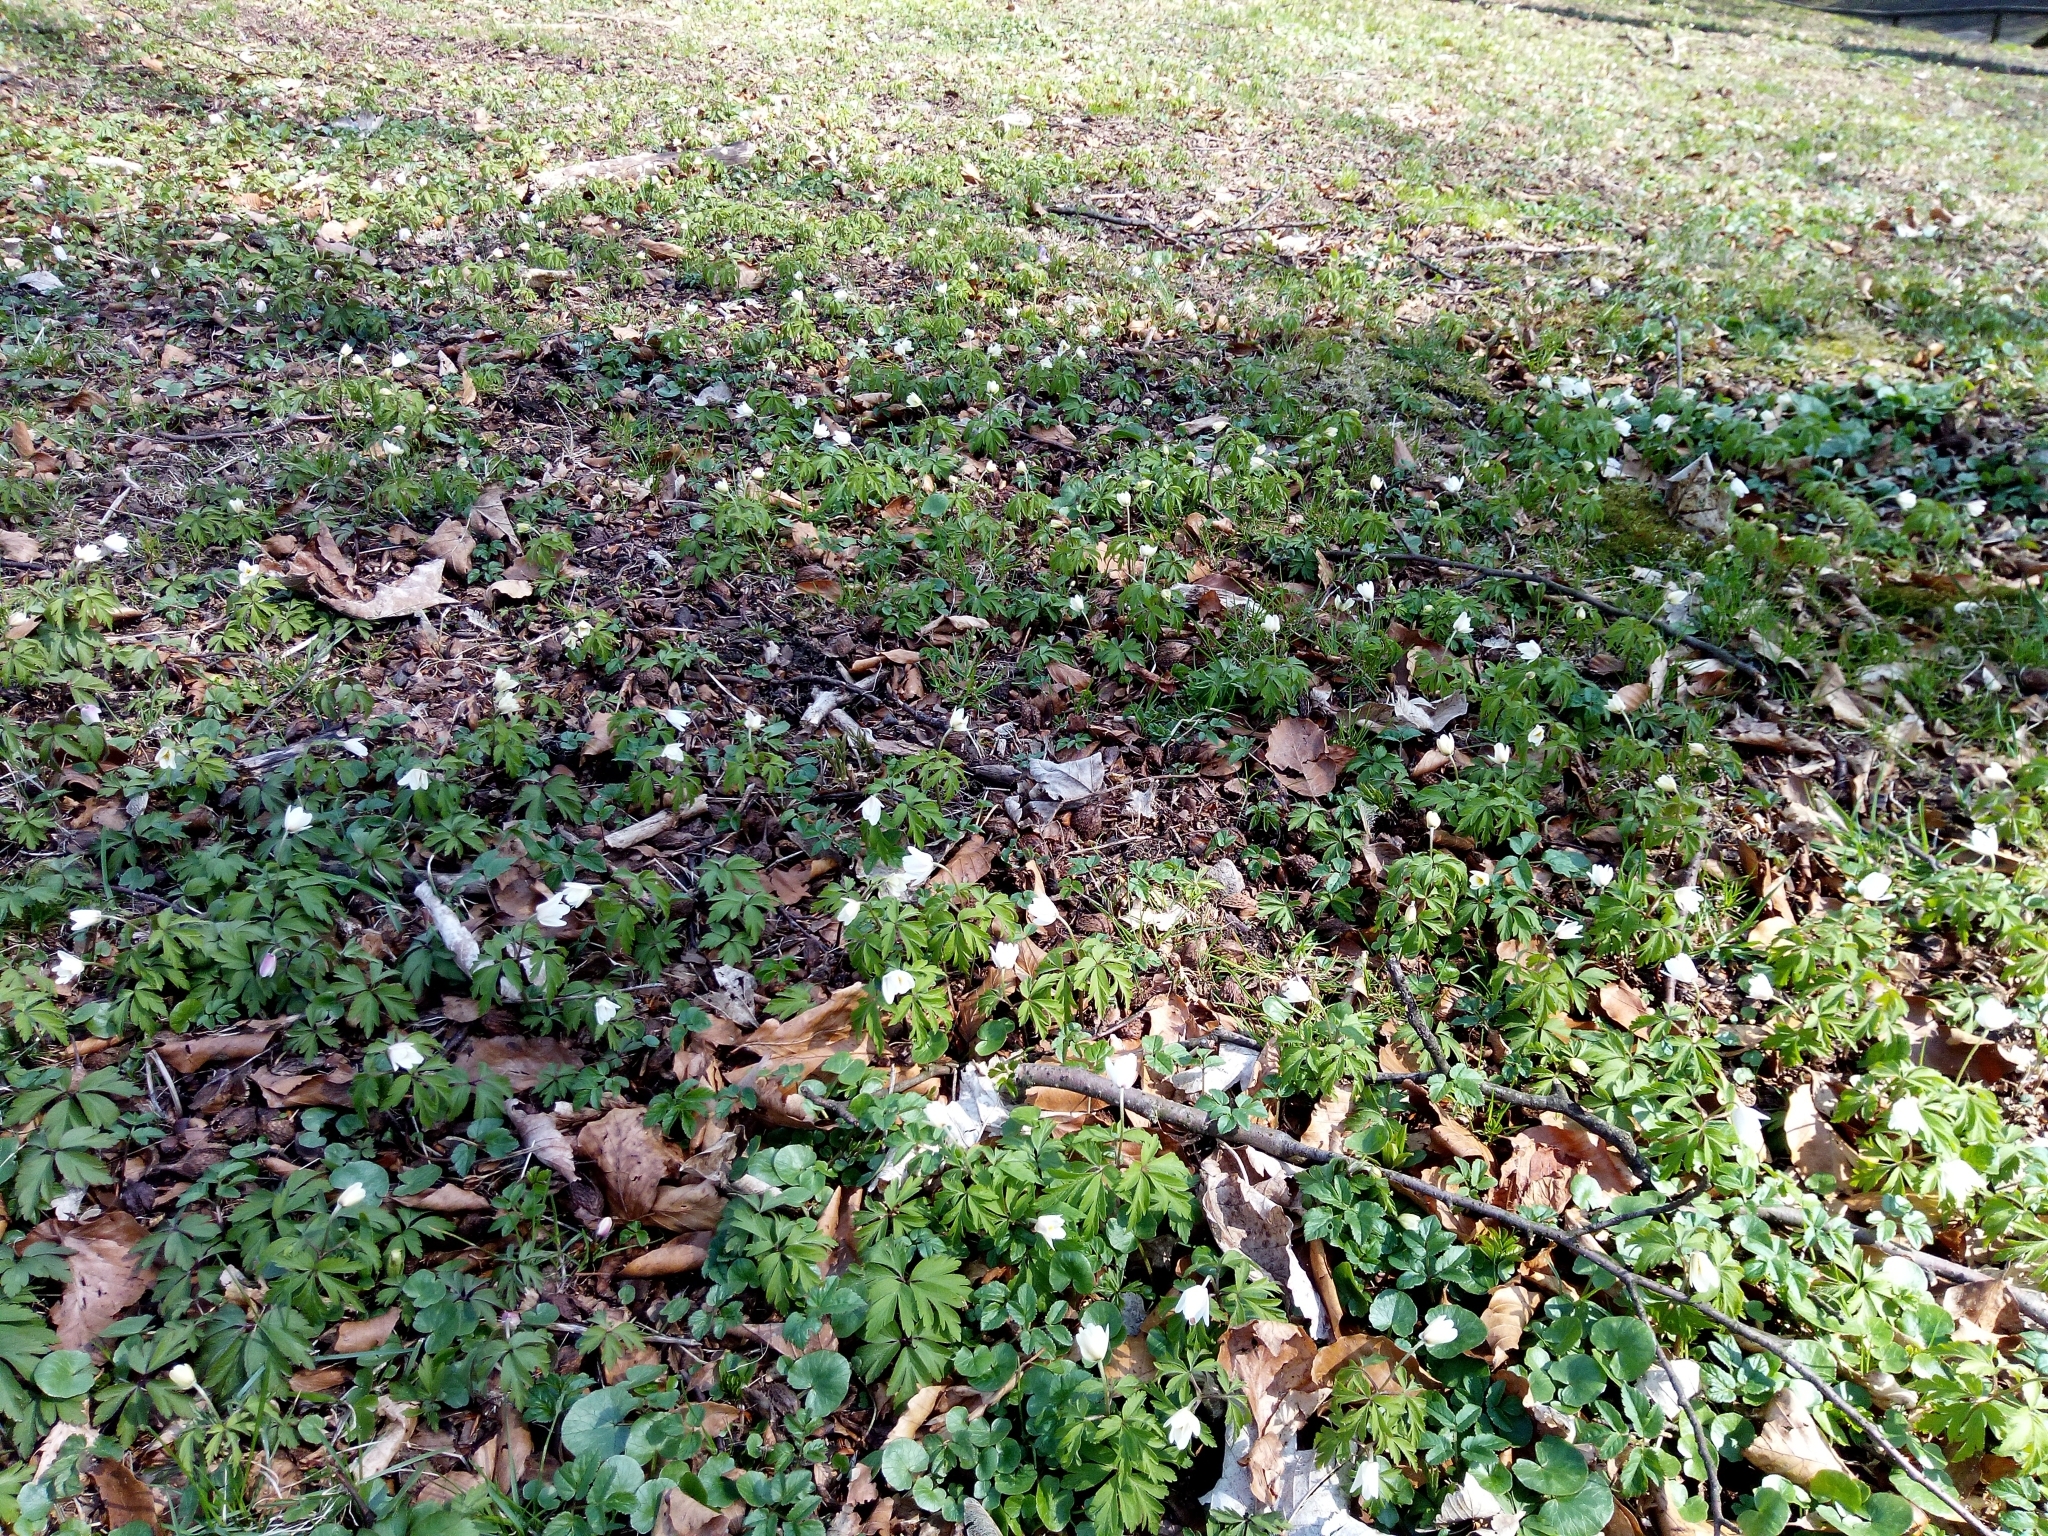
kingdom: Plantae
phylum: Tracheophyta
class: Magnoliopsida
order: Ranunculales
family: Ranunculaceae
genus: Anemone
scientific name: Anemone nemorosa
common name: Wood anemone
